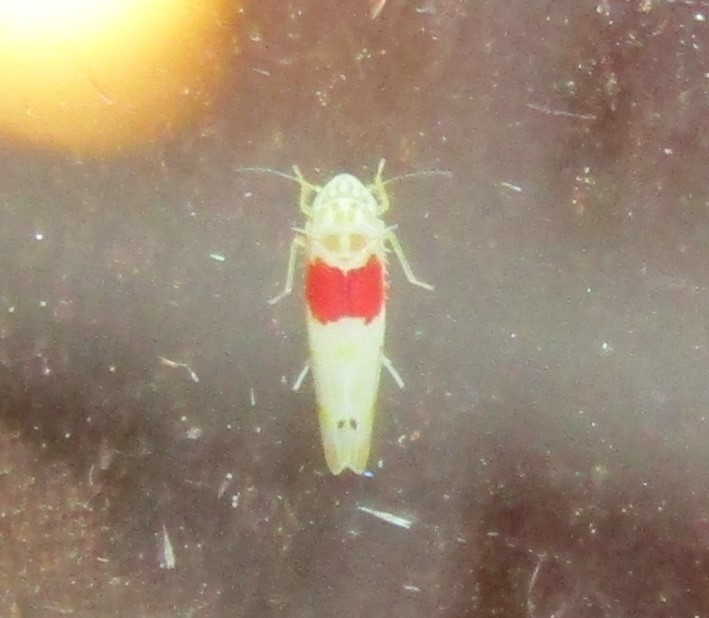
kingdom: Animalia
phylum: Arthropoda
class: Insecta
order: Hemiptera
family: Cicadellidae
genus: Eratoneura
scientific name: Eratoneura osborni
